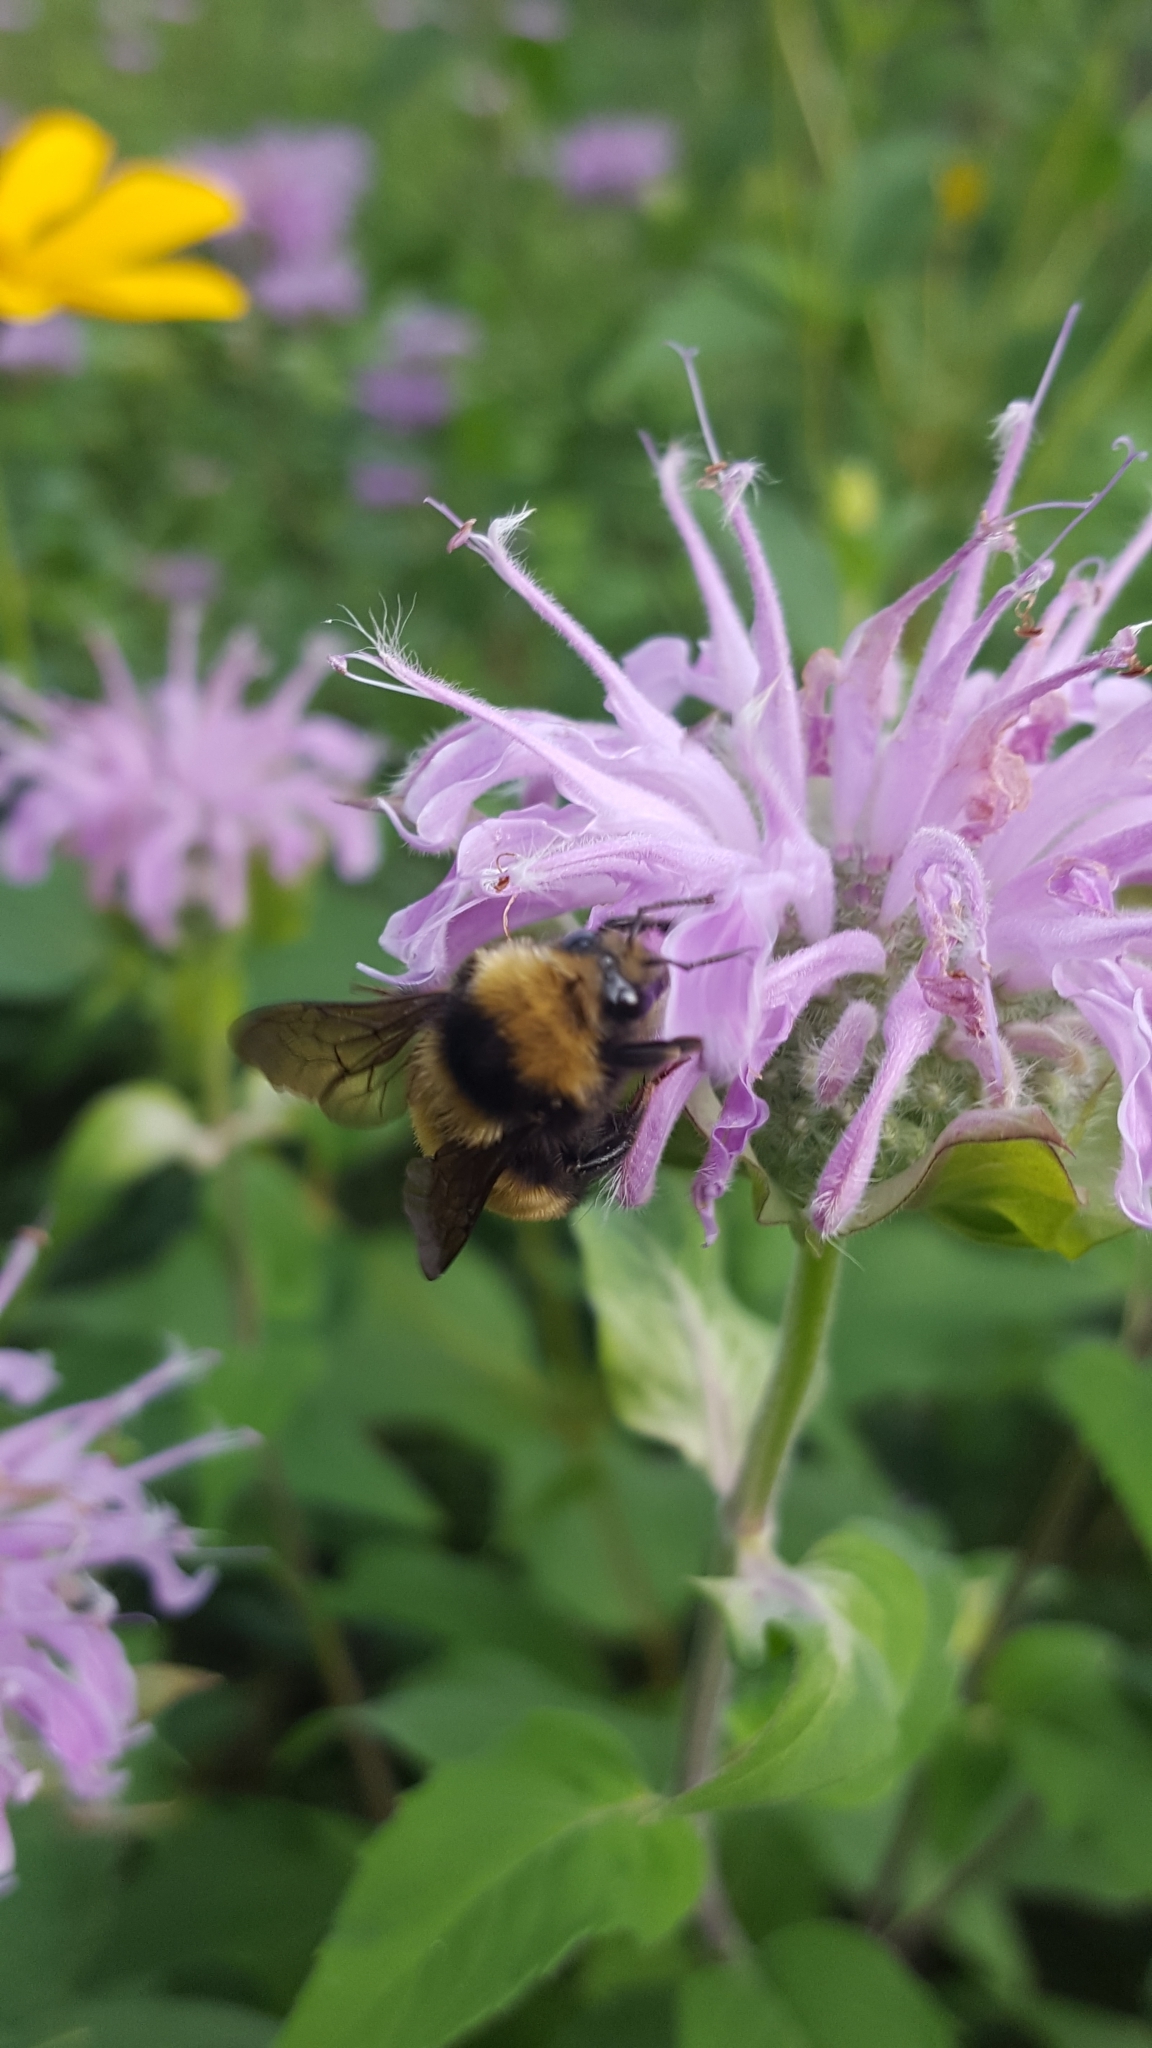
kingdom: Animalia
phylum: Arthropoda
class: Insecta
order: Hymenoptera
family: Apidae
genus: Bombus
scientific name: Bombus borealis
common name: Northern amber bumble bee
